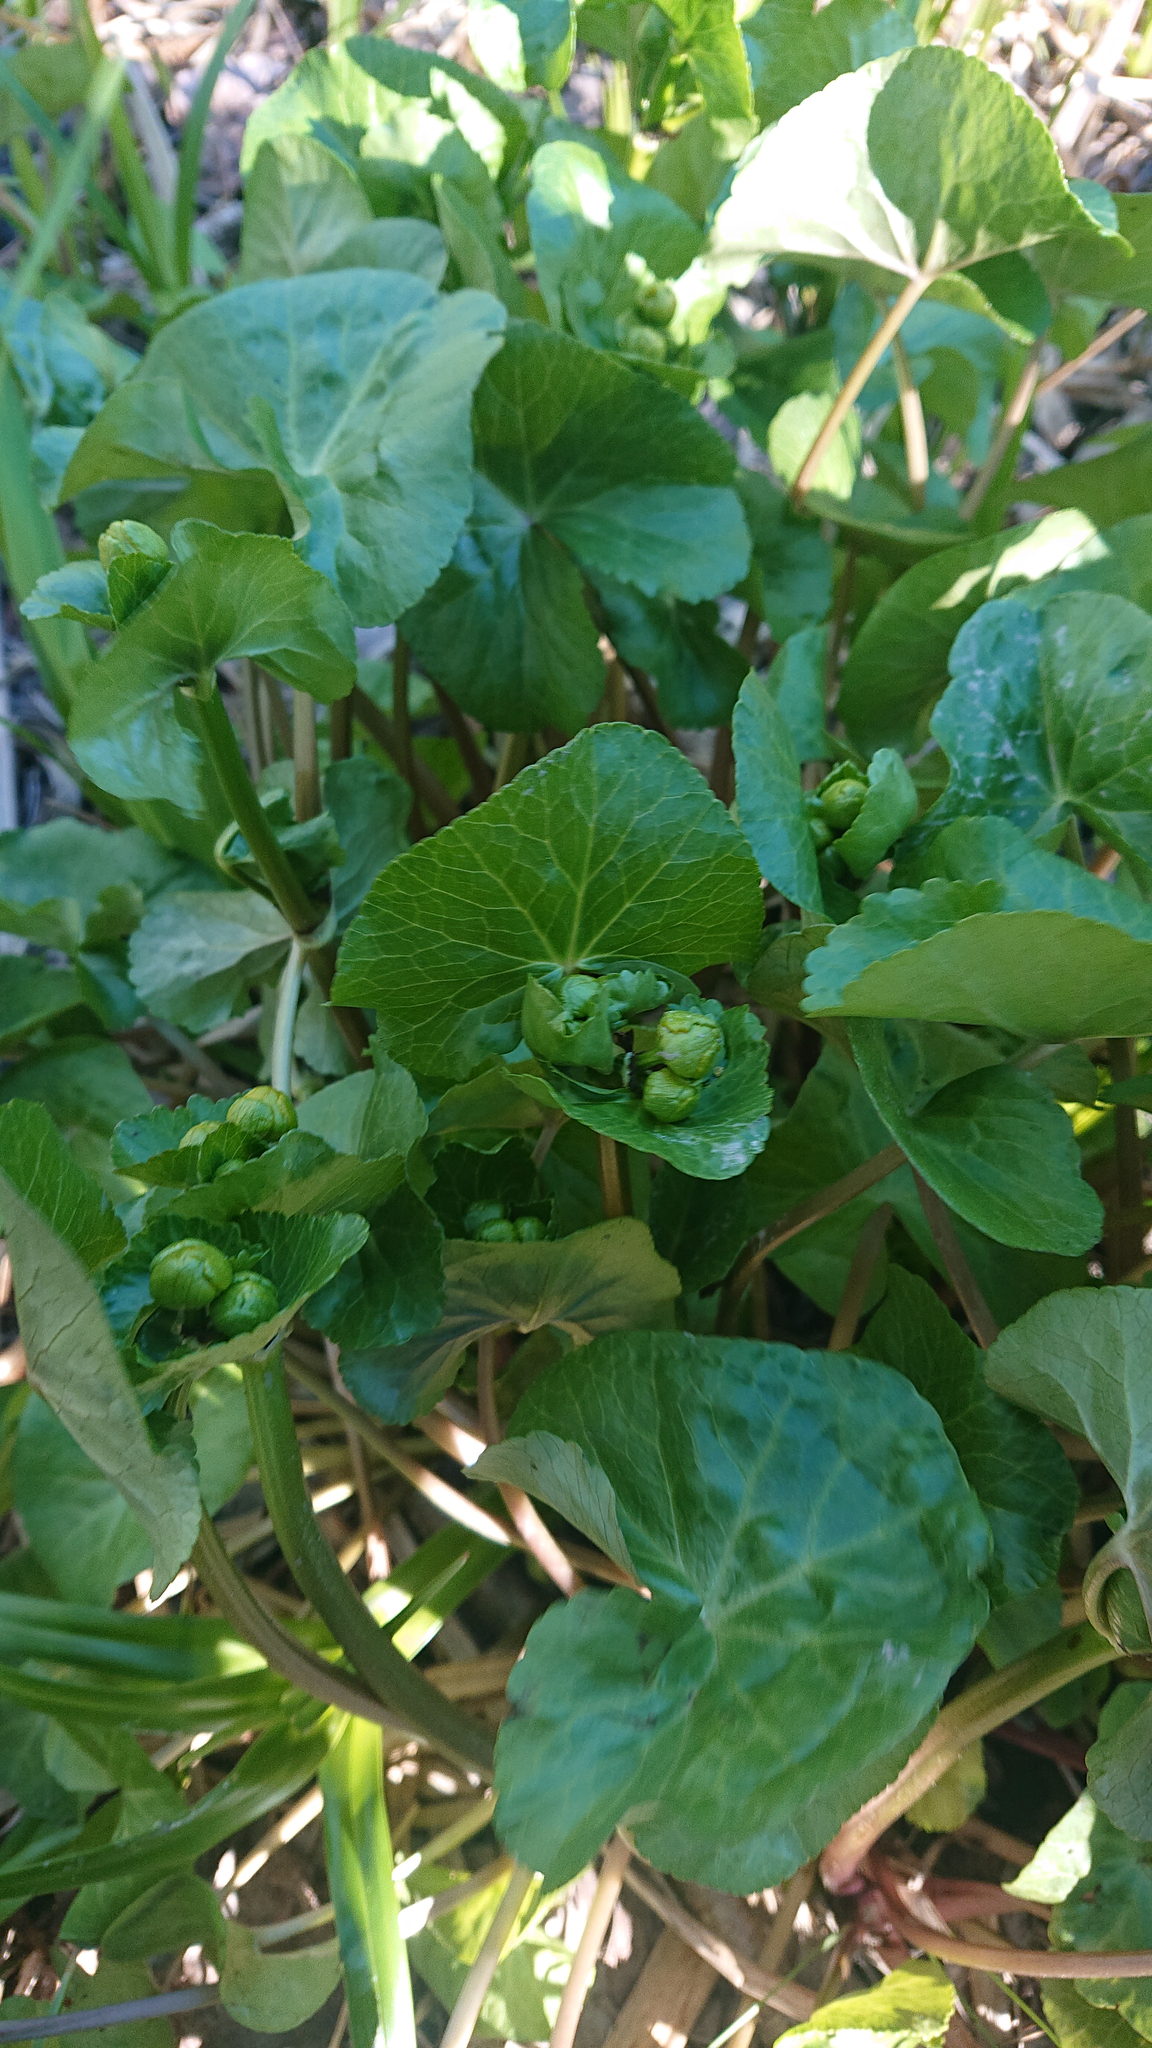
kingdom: Plantae
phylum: Tracheophyta
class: Magnoliopsida
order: Ranunculales
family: Ranunculaceae
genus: Caltha
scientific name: Caltha palustris
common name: Marsh marigold
